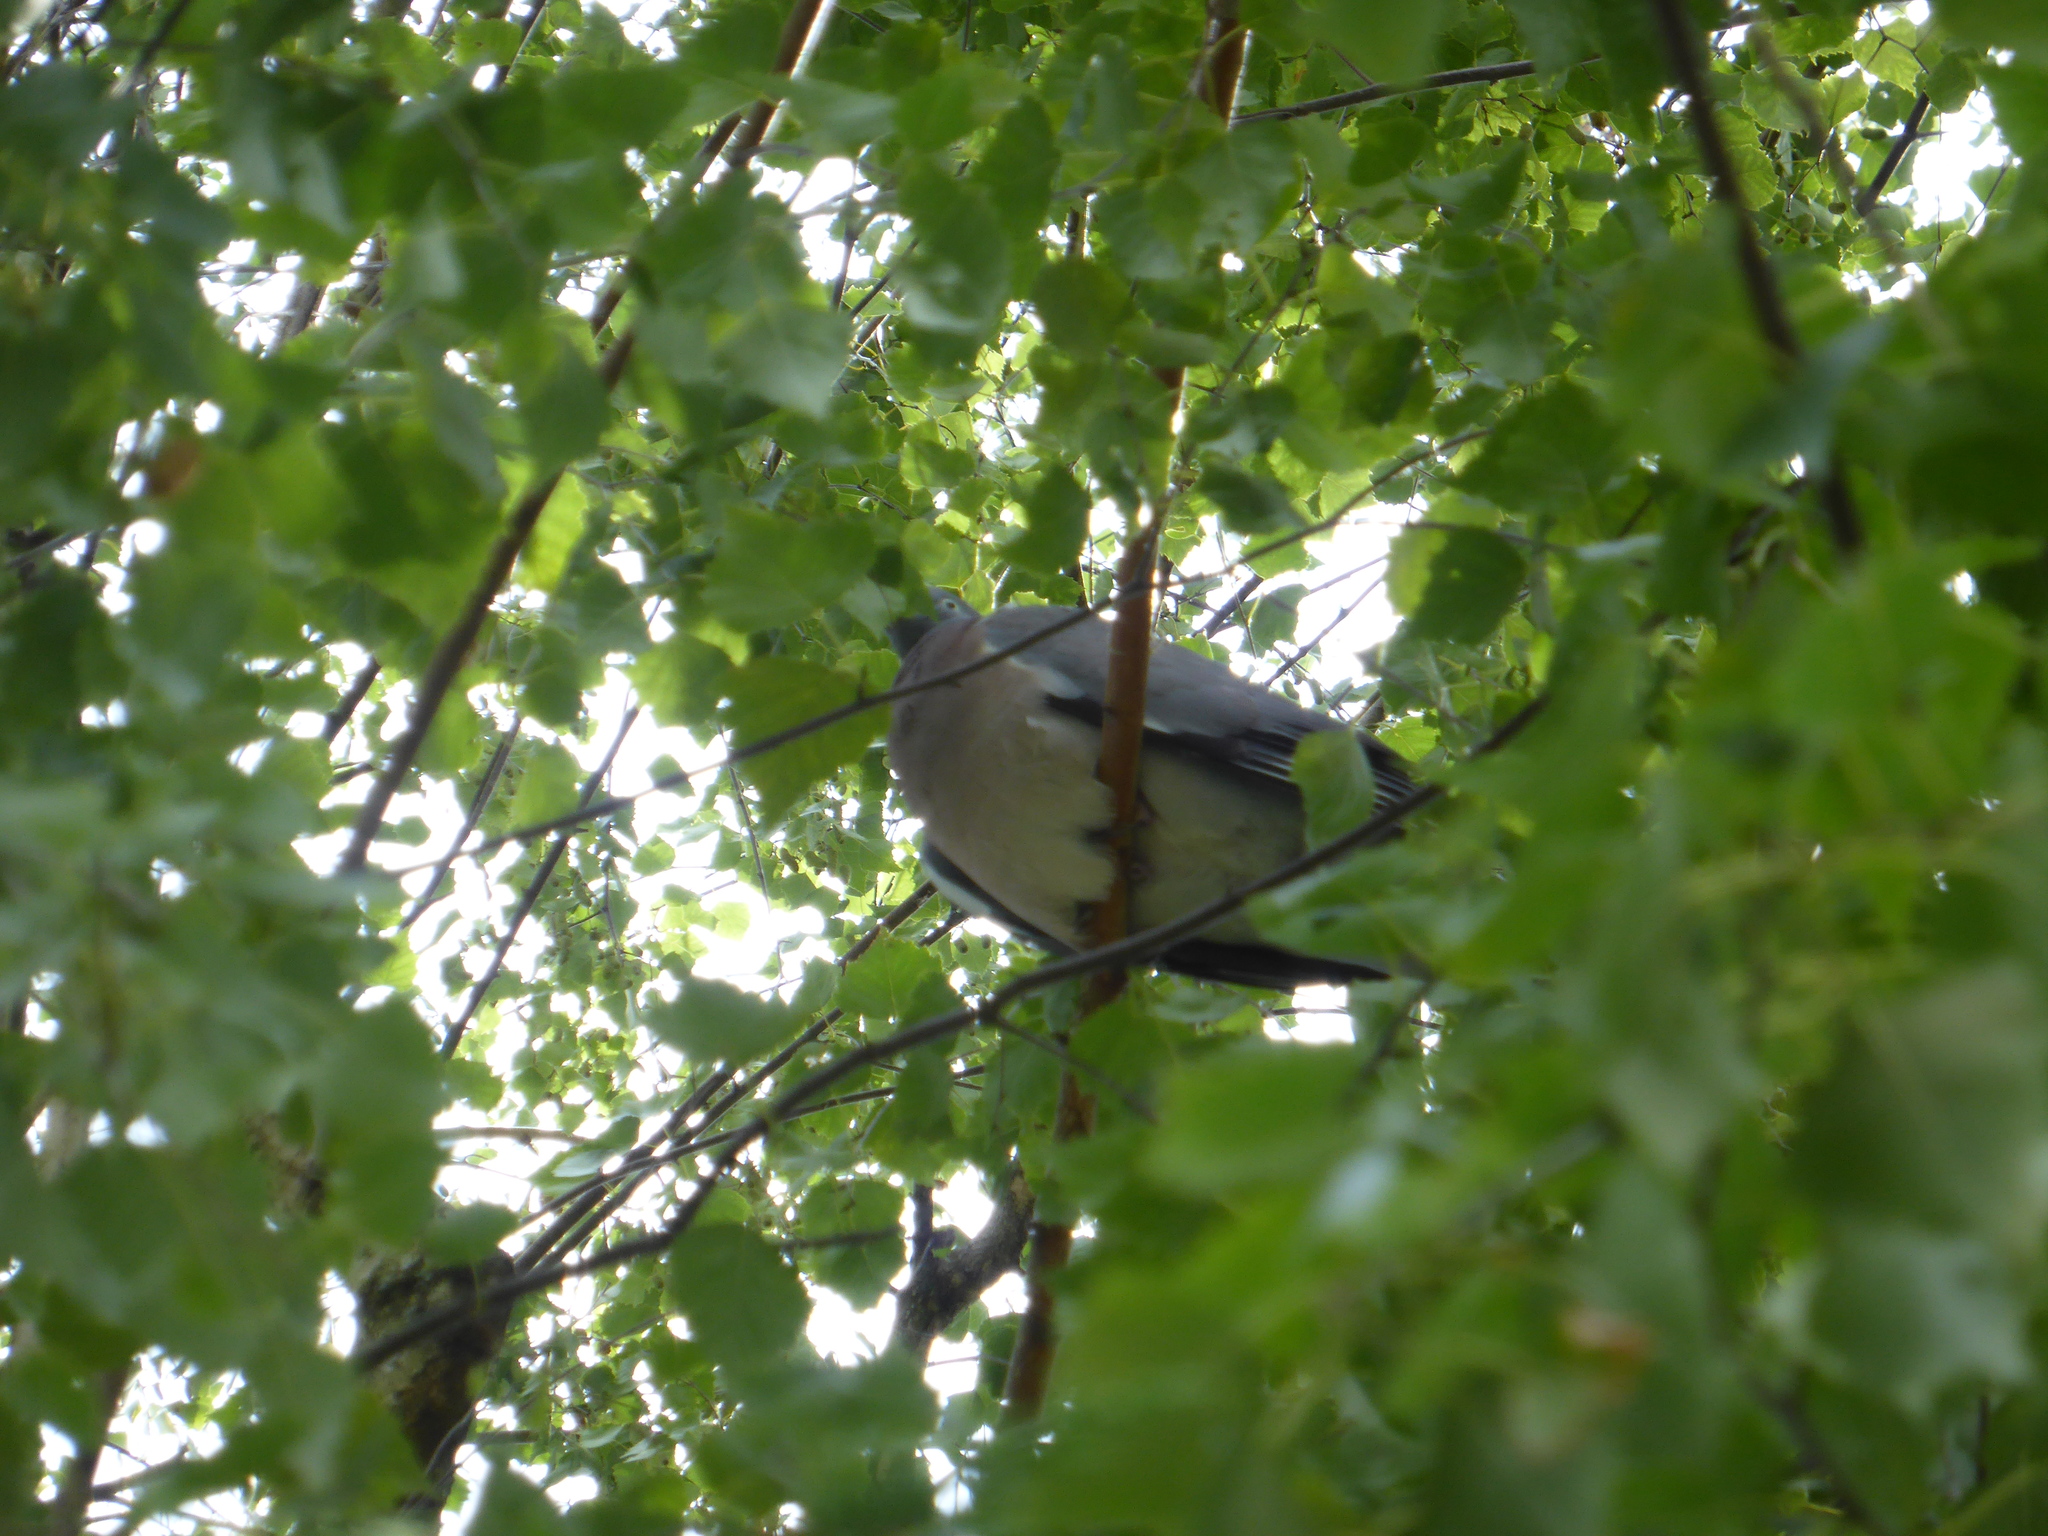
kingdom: Animalia
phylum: Chordata
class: Aves
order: Columbiformes
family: Columbidae
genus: Columba
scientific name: Columba palumbus
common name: Common wood pigeon
